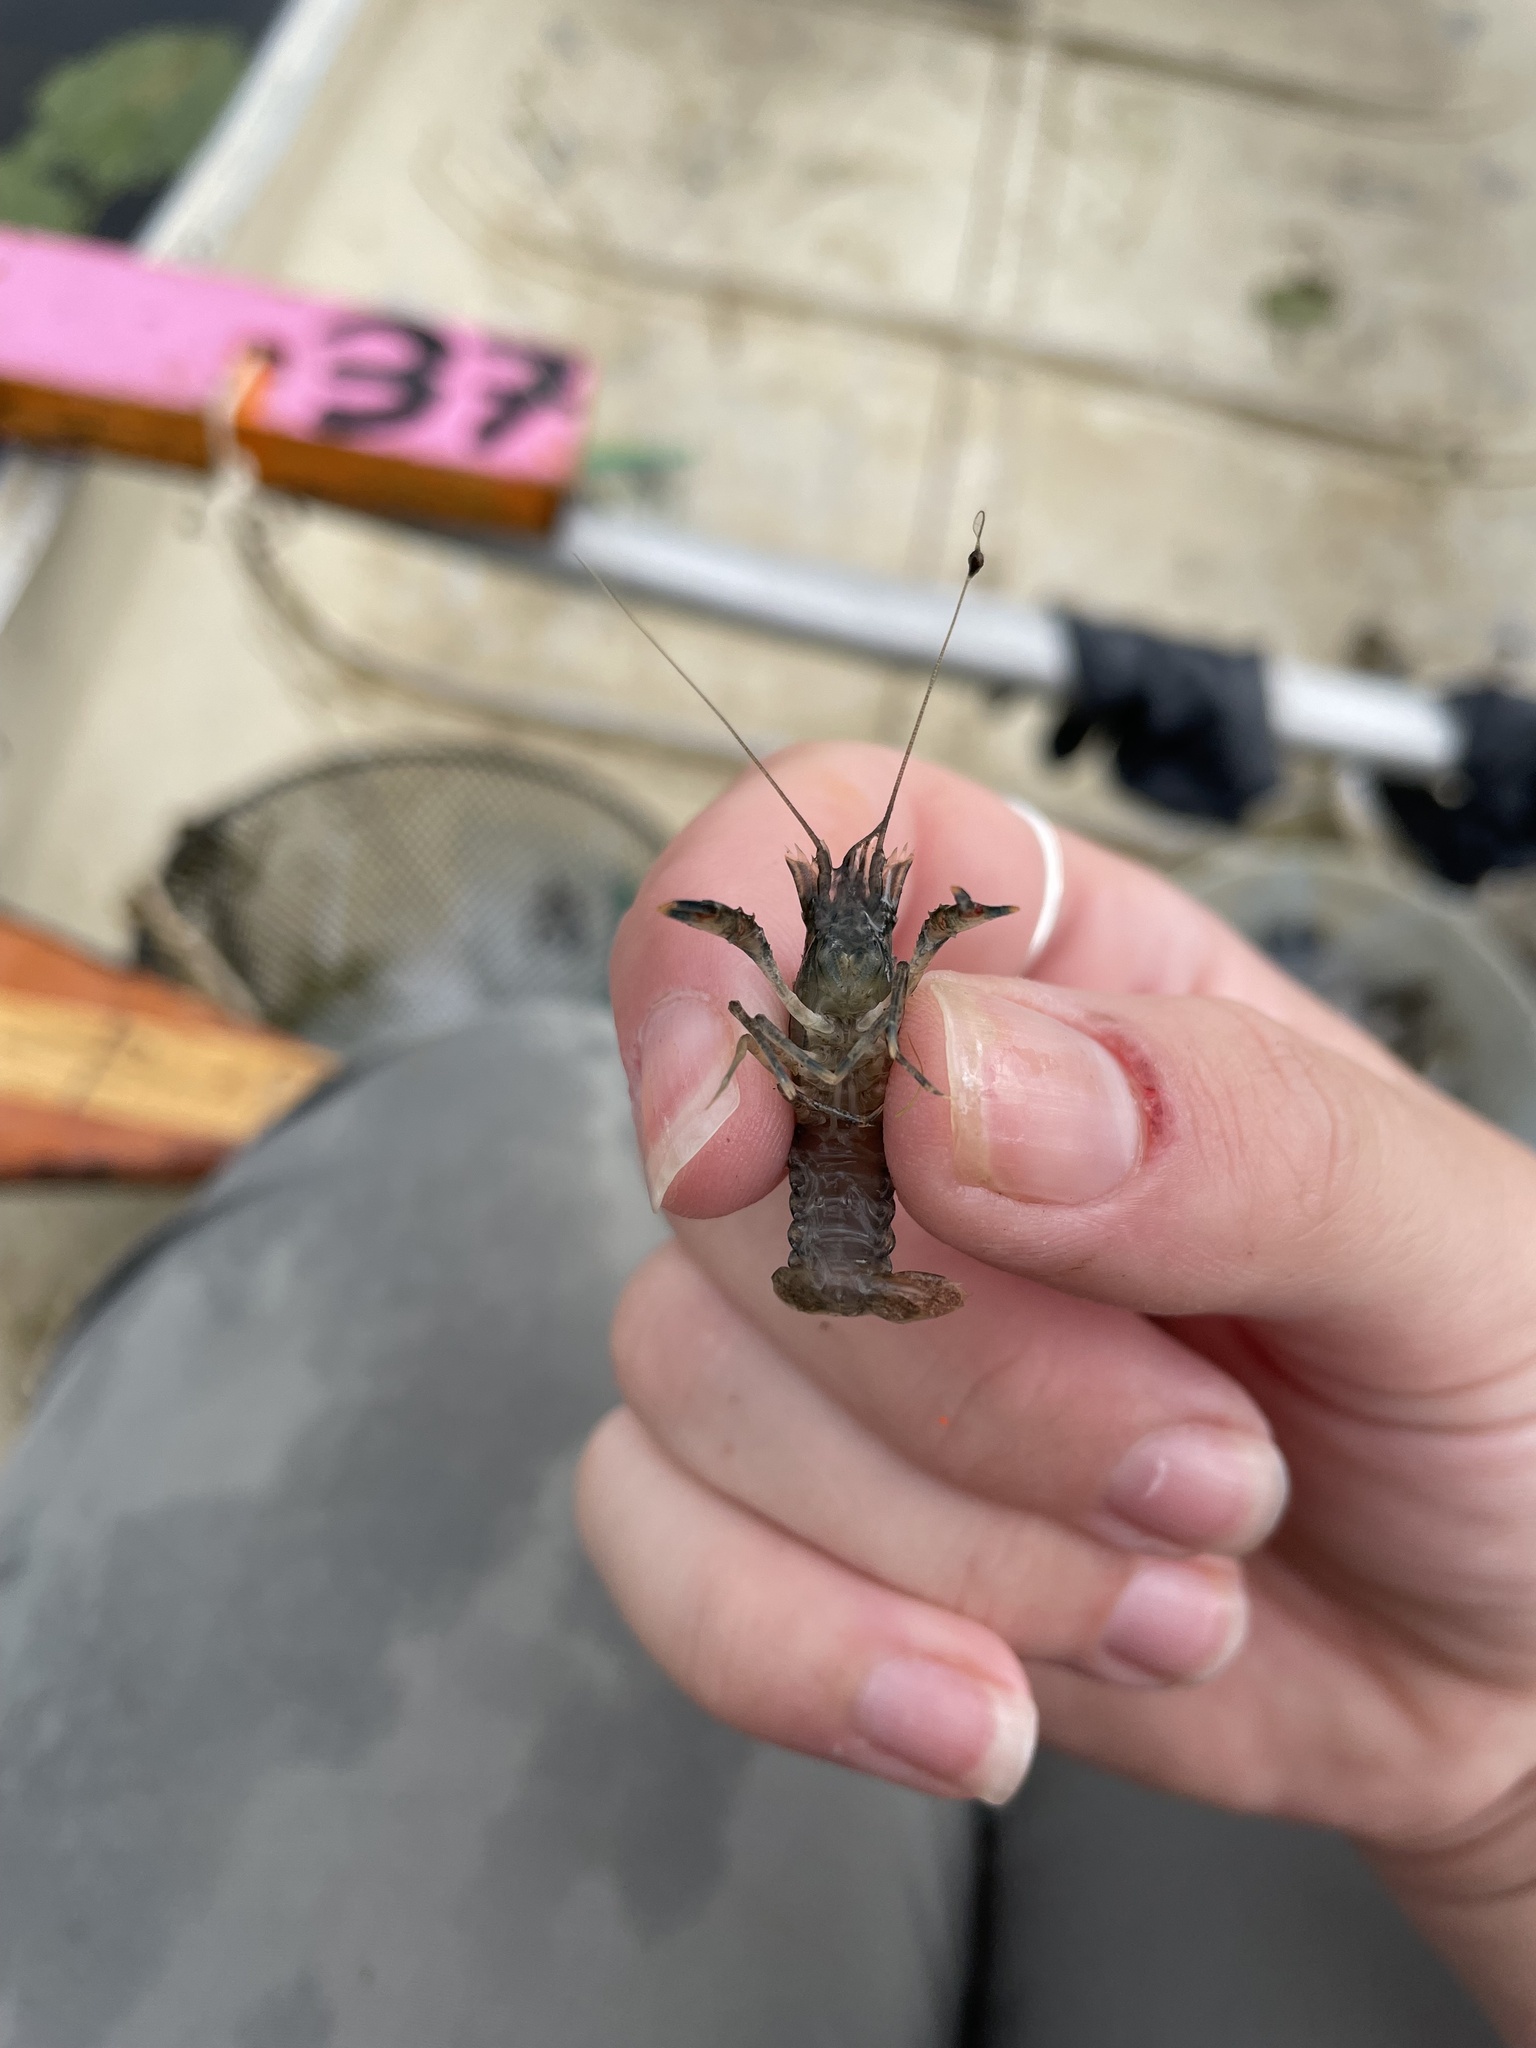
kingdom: Animalia
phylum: Arthropoda
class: Malacostraca
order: Decapoda
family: Cambaridae
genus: Faxonius
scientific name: Faxonius limosus
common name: American crayfish
